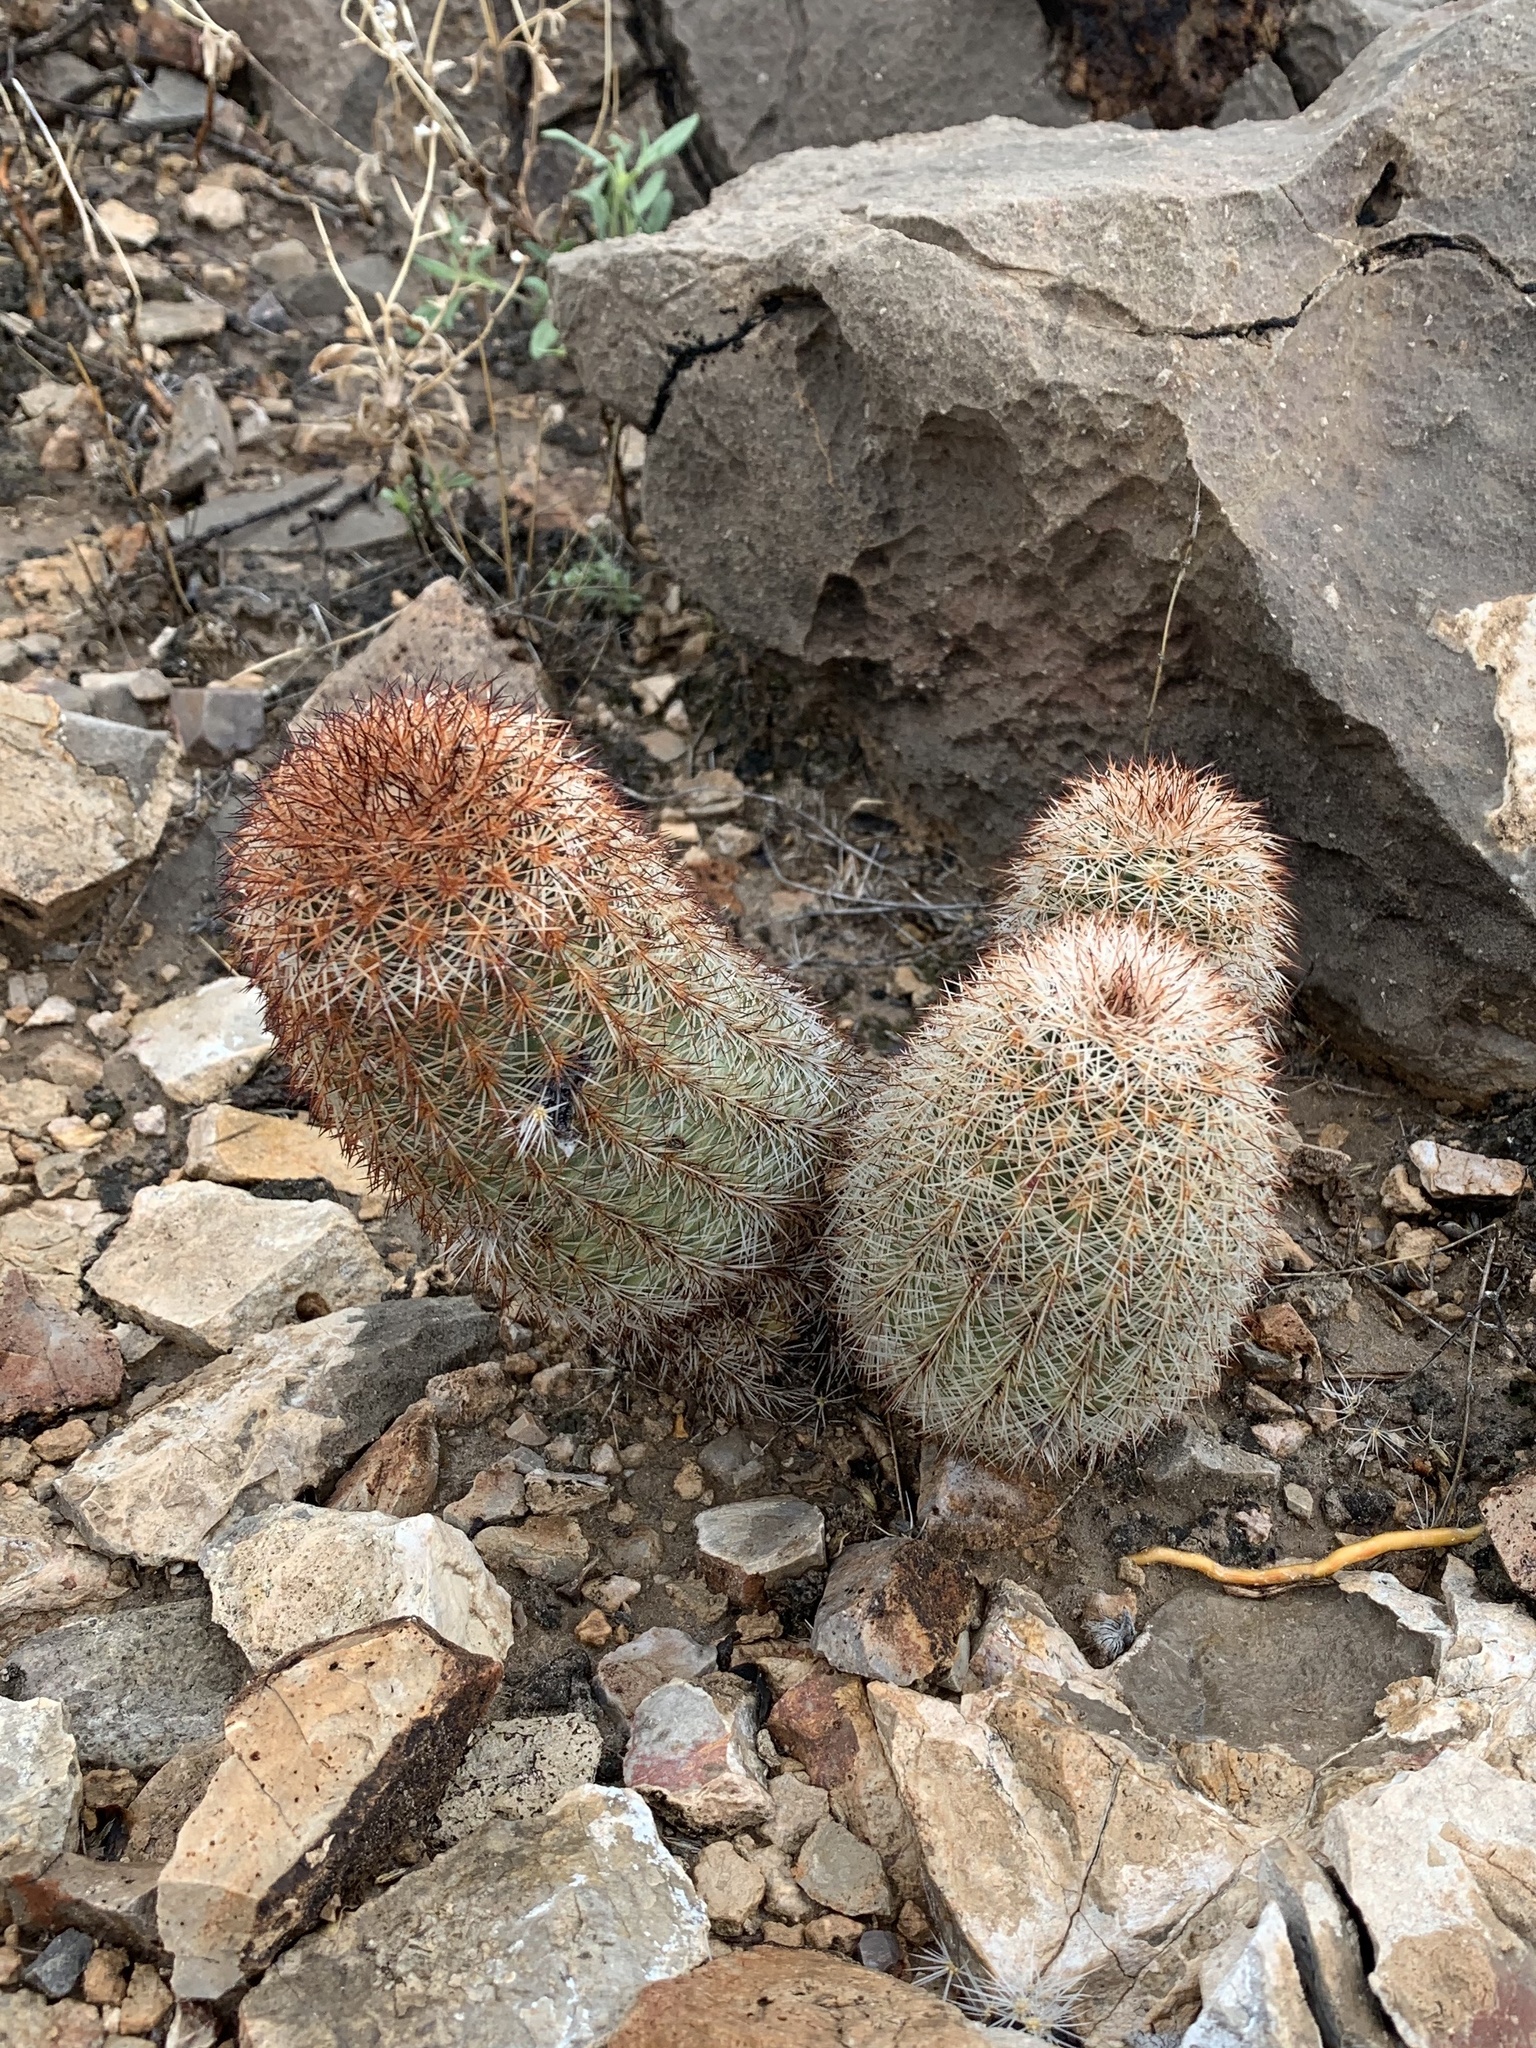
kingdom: Plantae
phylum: Tracheophyta
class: Magnoliopsida
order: Caryophyllales
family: Cactaceae
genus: Echinocereus
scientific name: Echinocereus dasyacanthus
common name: Spiny hedgehog cactus
